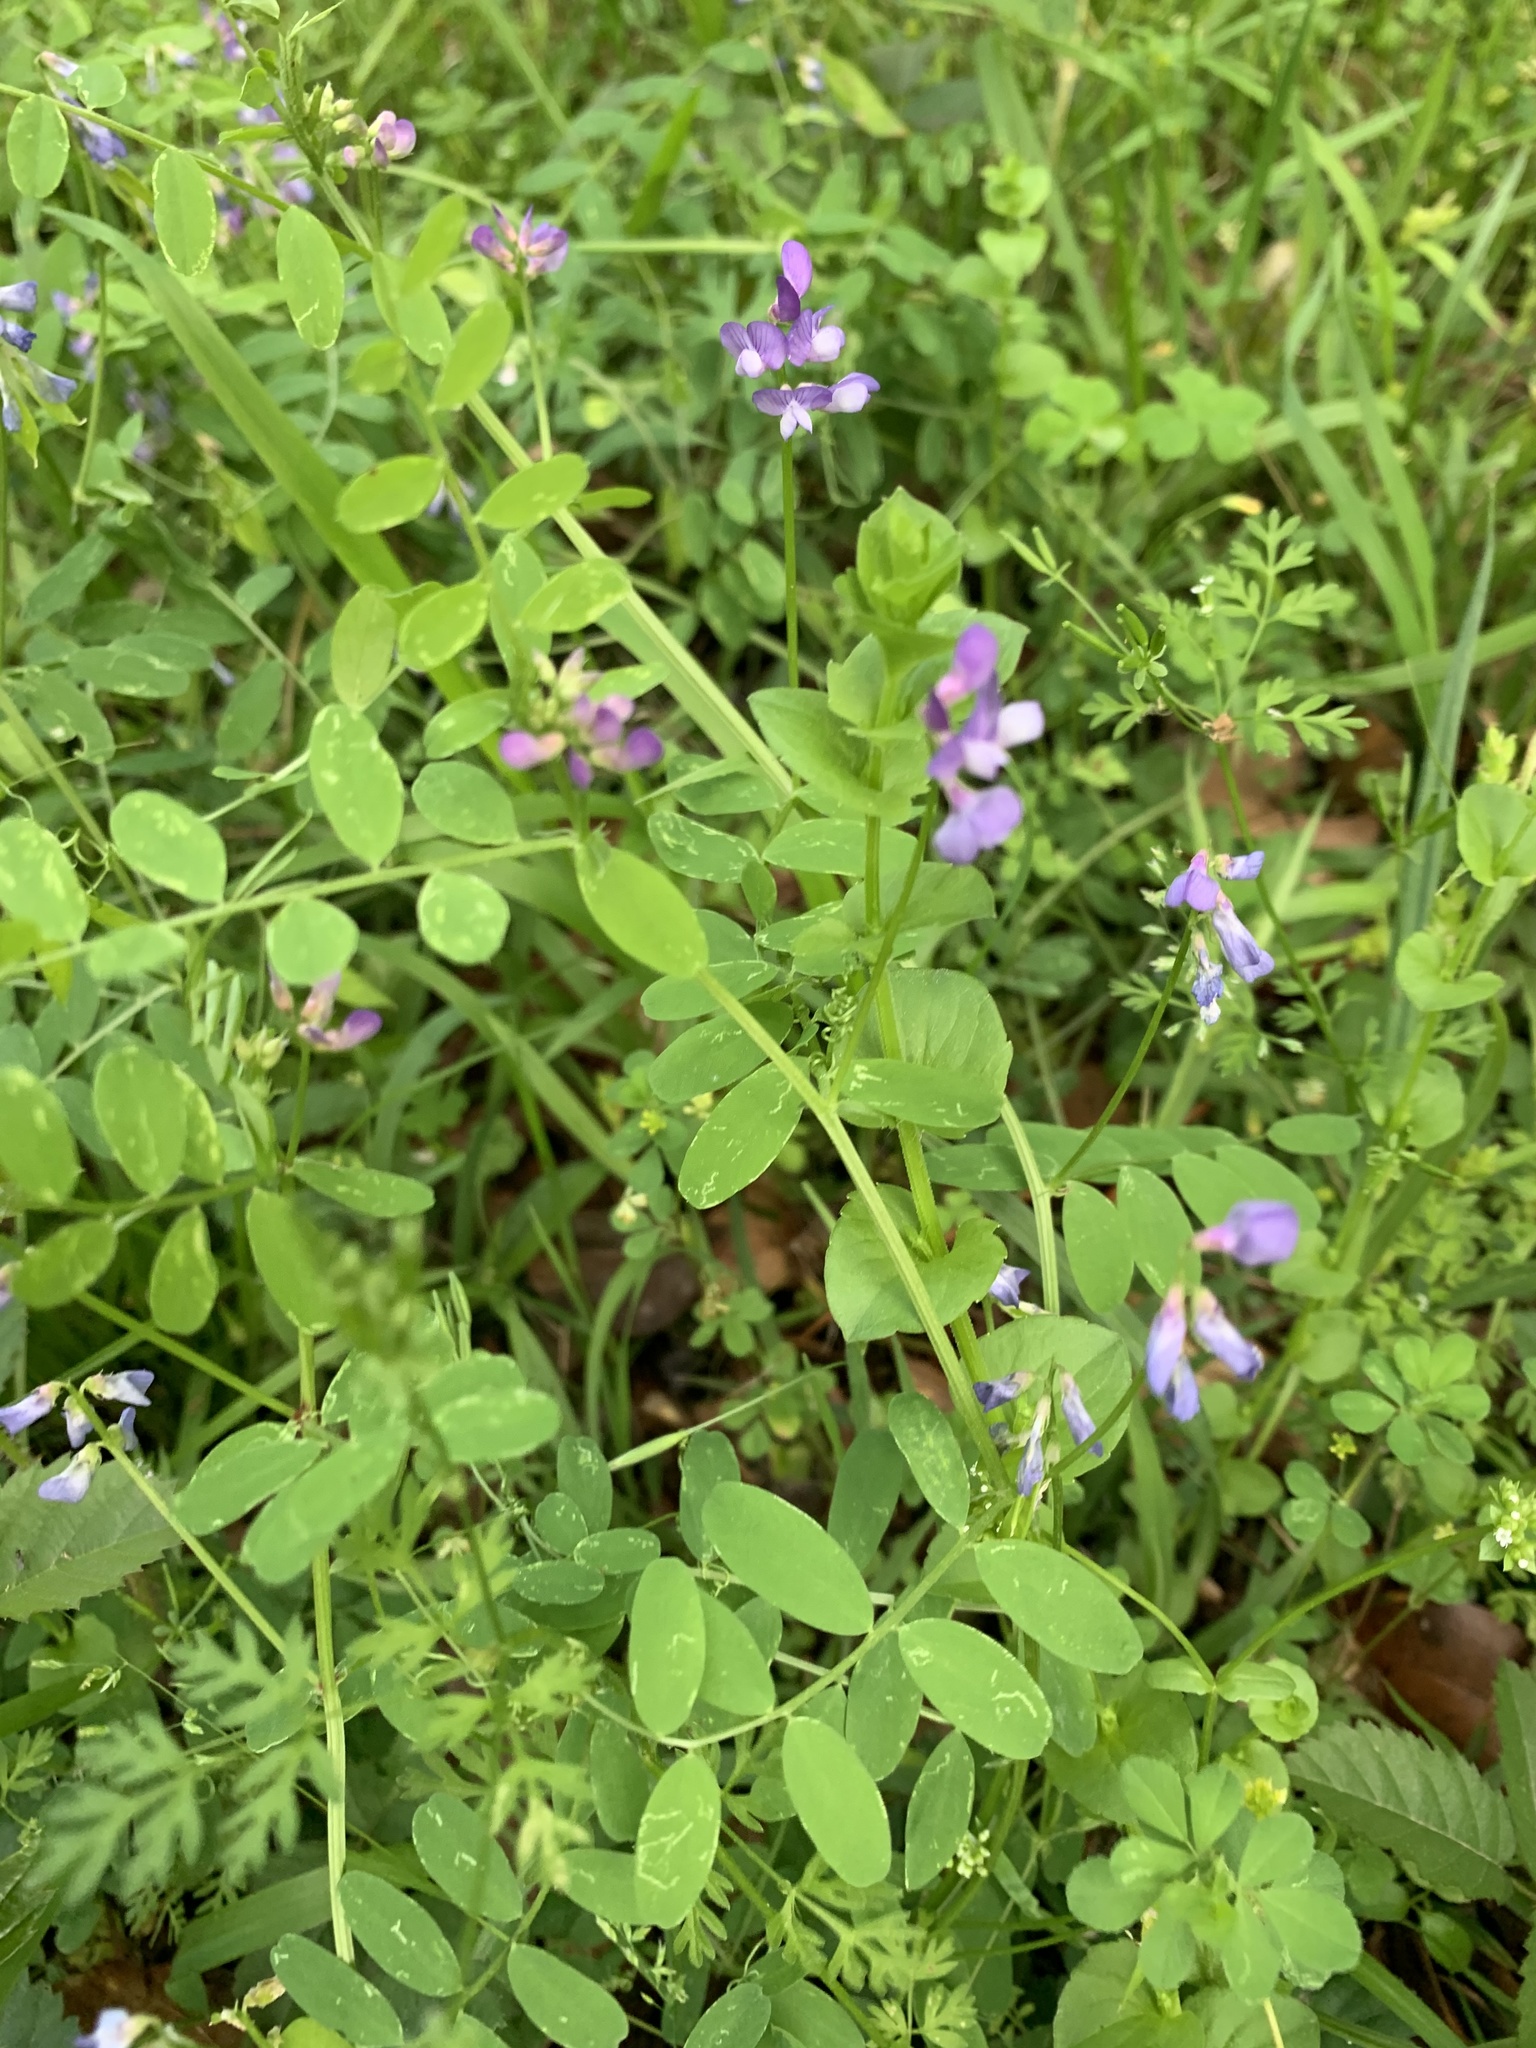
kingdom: Plantae
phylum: Tracheophyta
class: Magnoliopsida
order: Fabales
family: Fabaceae
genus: Vicia
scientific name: Vicia ludoviciana
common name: Louisiana vetch
